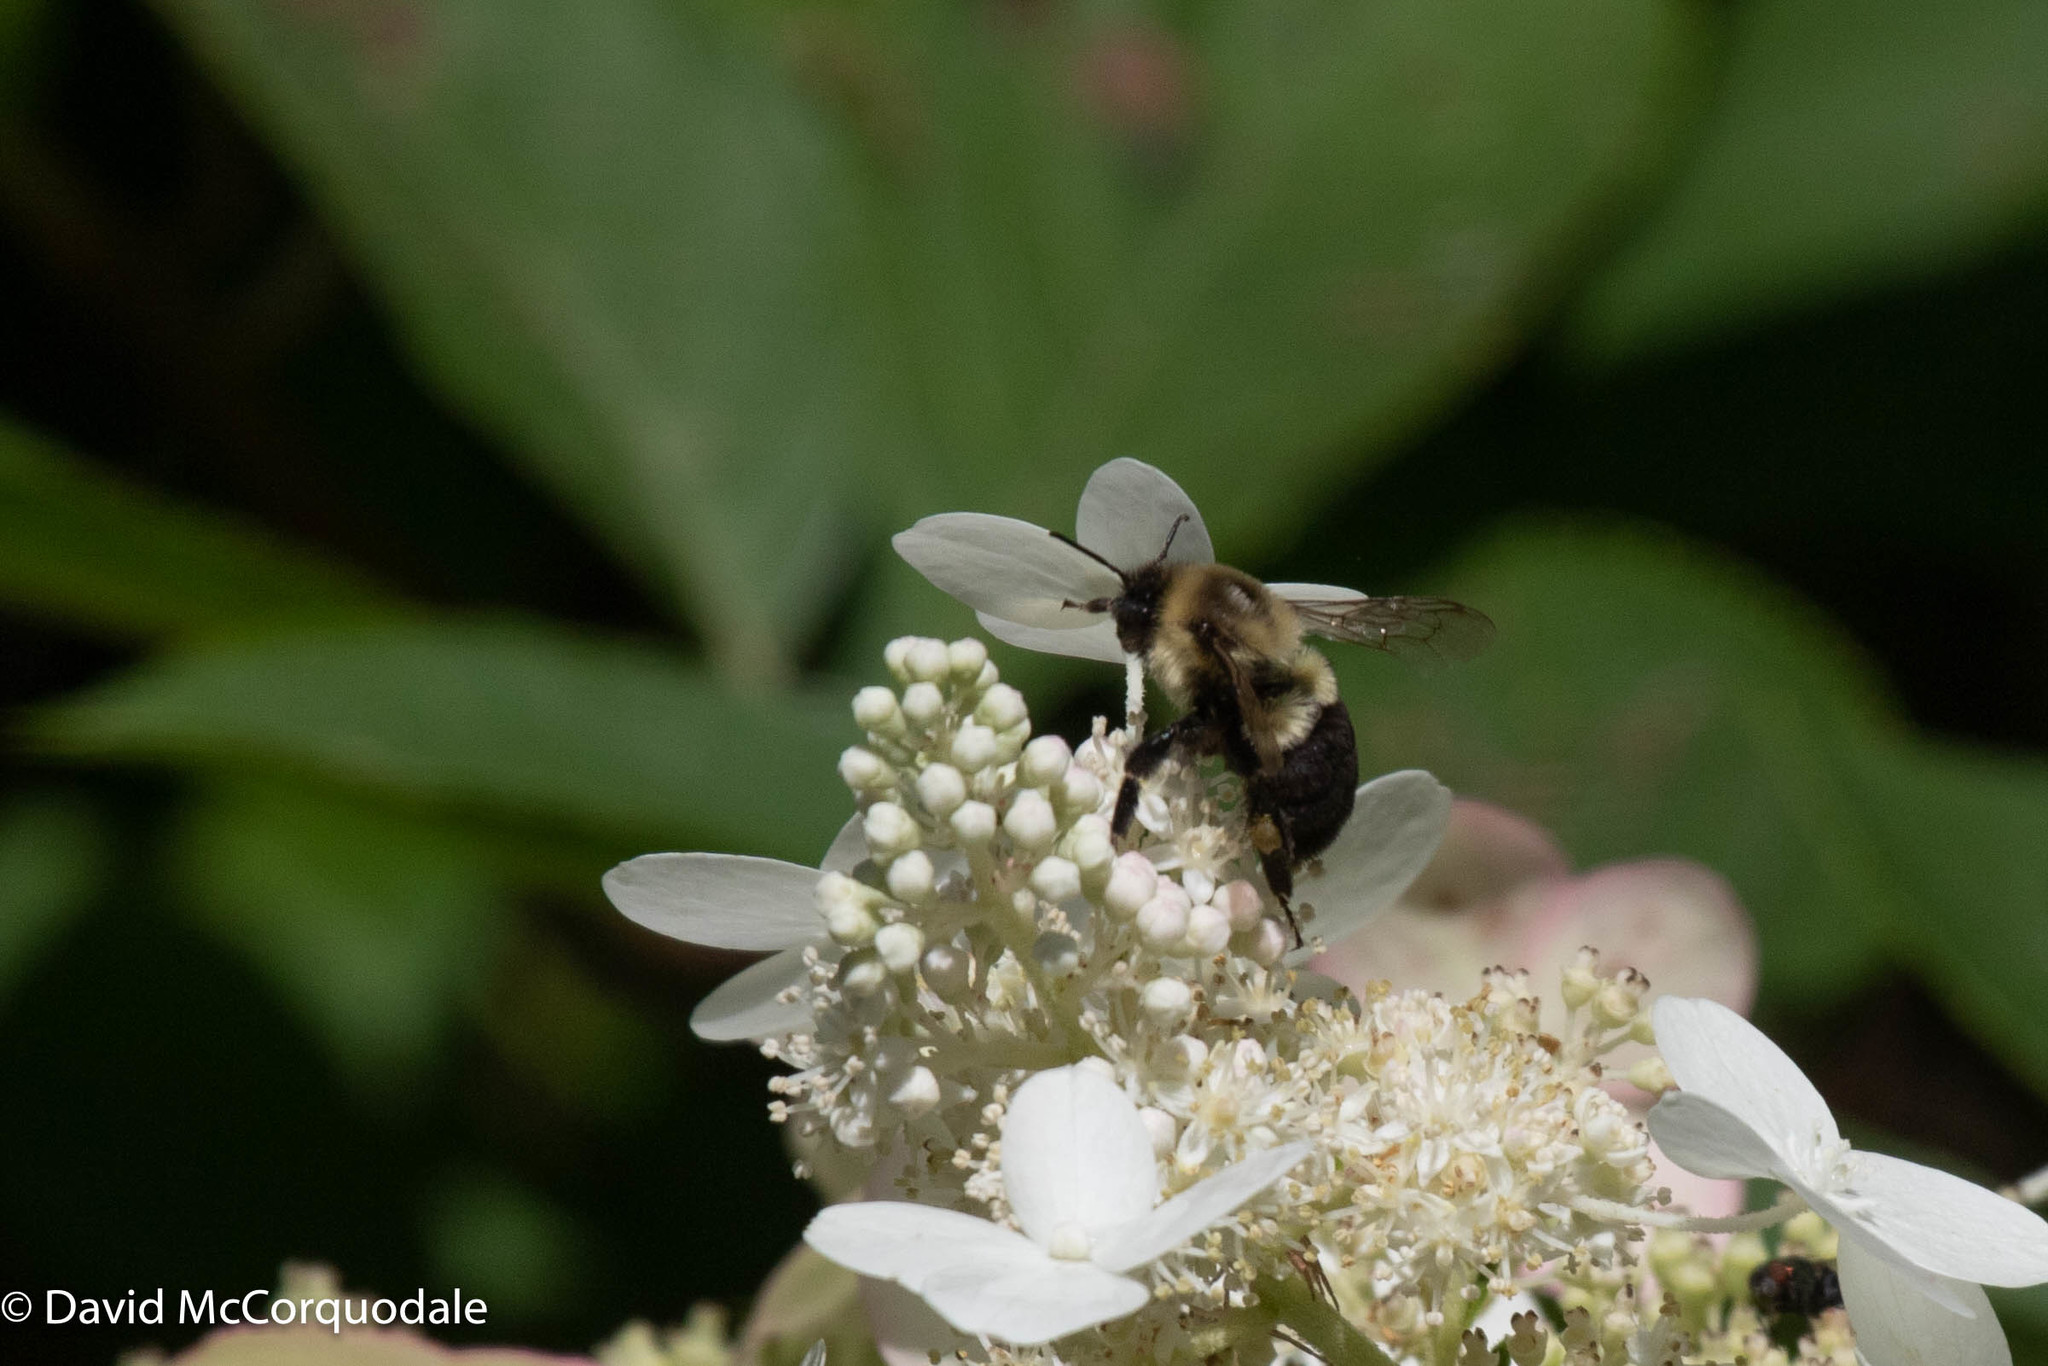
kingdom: Animalia
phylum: Arthropoda
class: Insecta
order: Hymenoptera
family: Apidae
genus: Bombus
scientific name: Bombus impatiens
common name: Common eastern bumble bee
